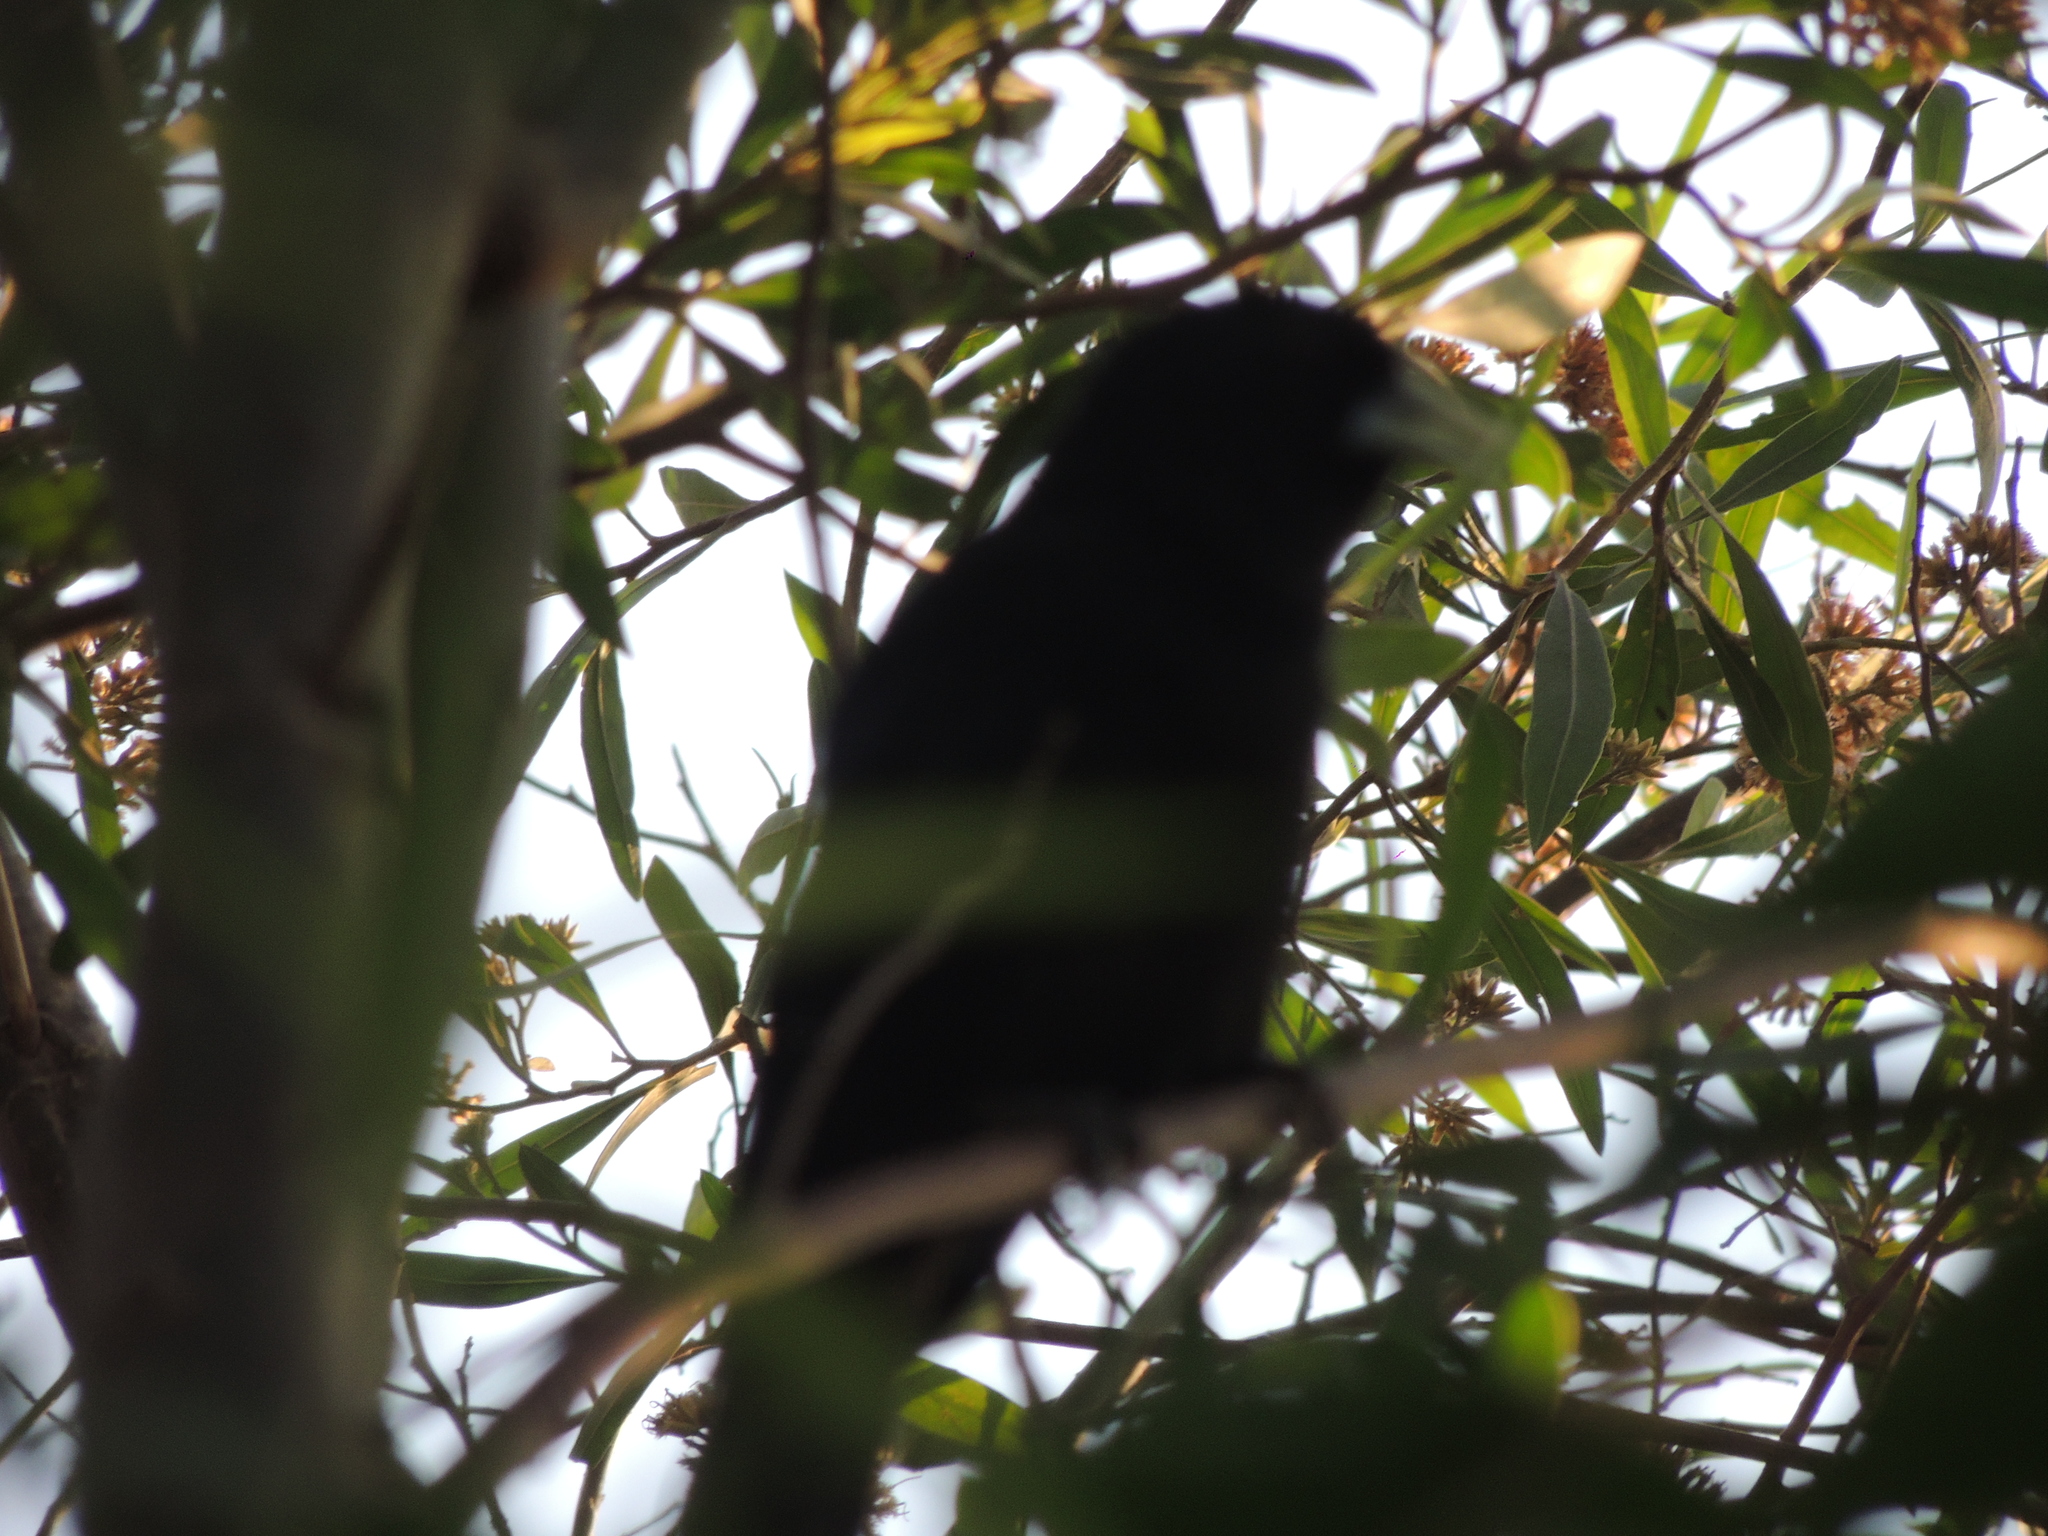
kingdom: Animalia
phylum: Chordata
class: Aves
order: Passeriformes
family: Icteridae
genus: Cacicus
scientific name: Cacicus solitarius
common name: Solitary cacique
